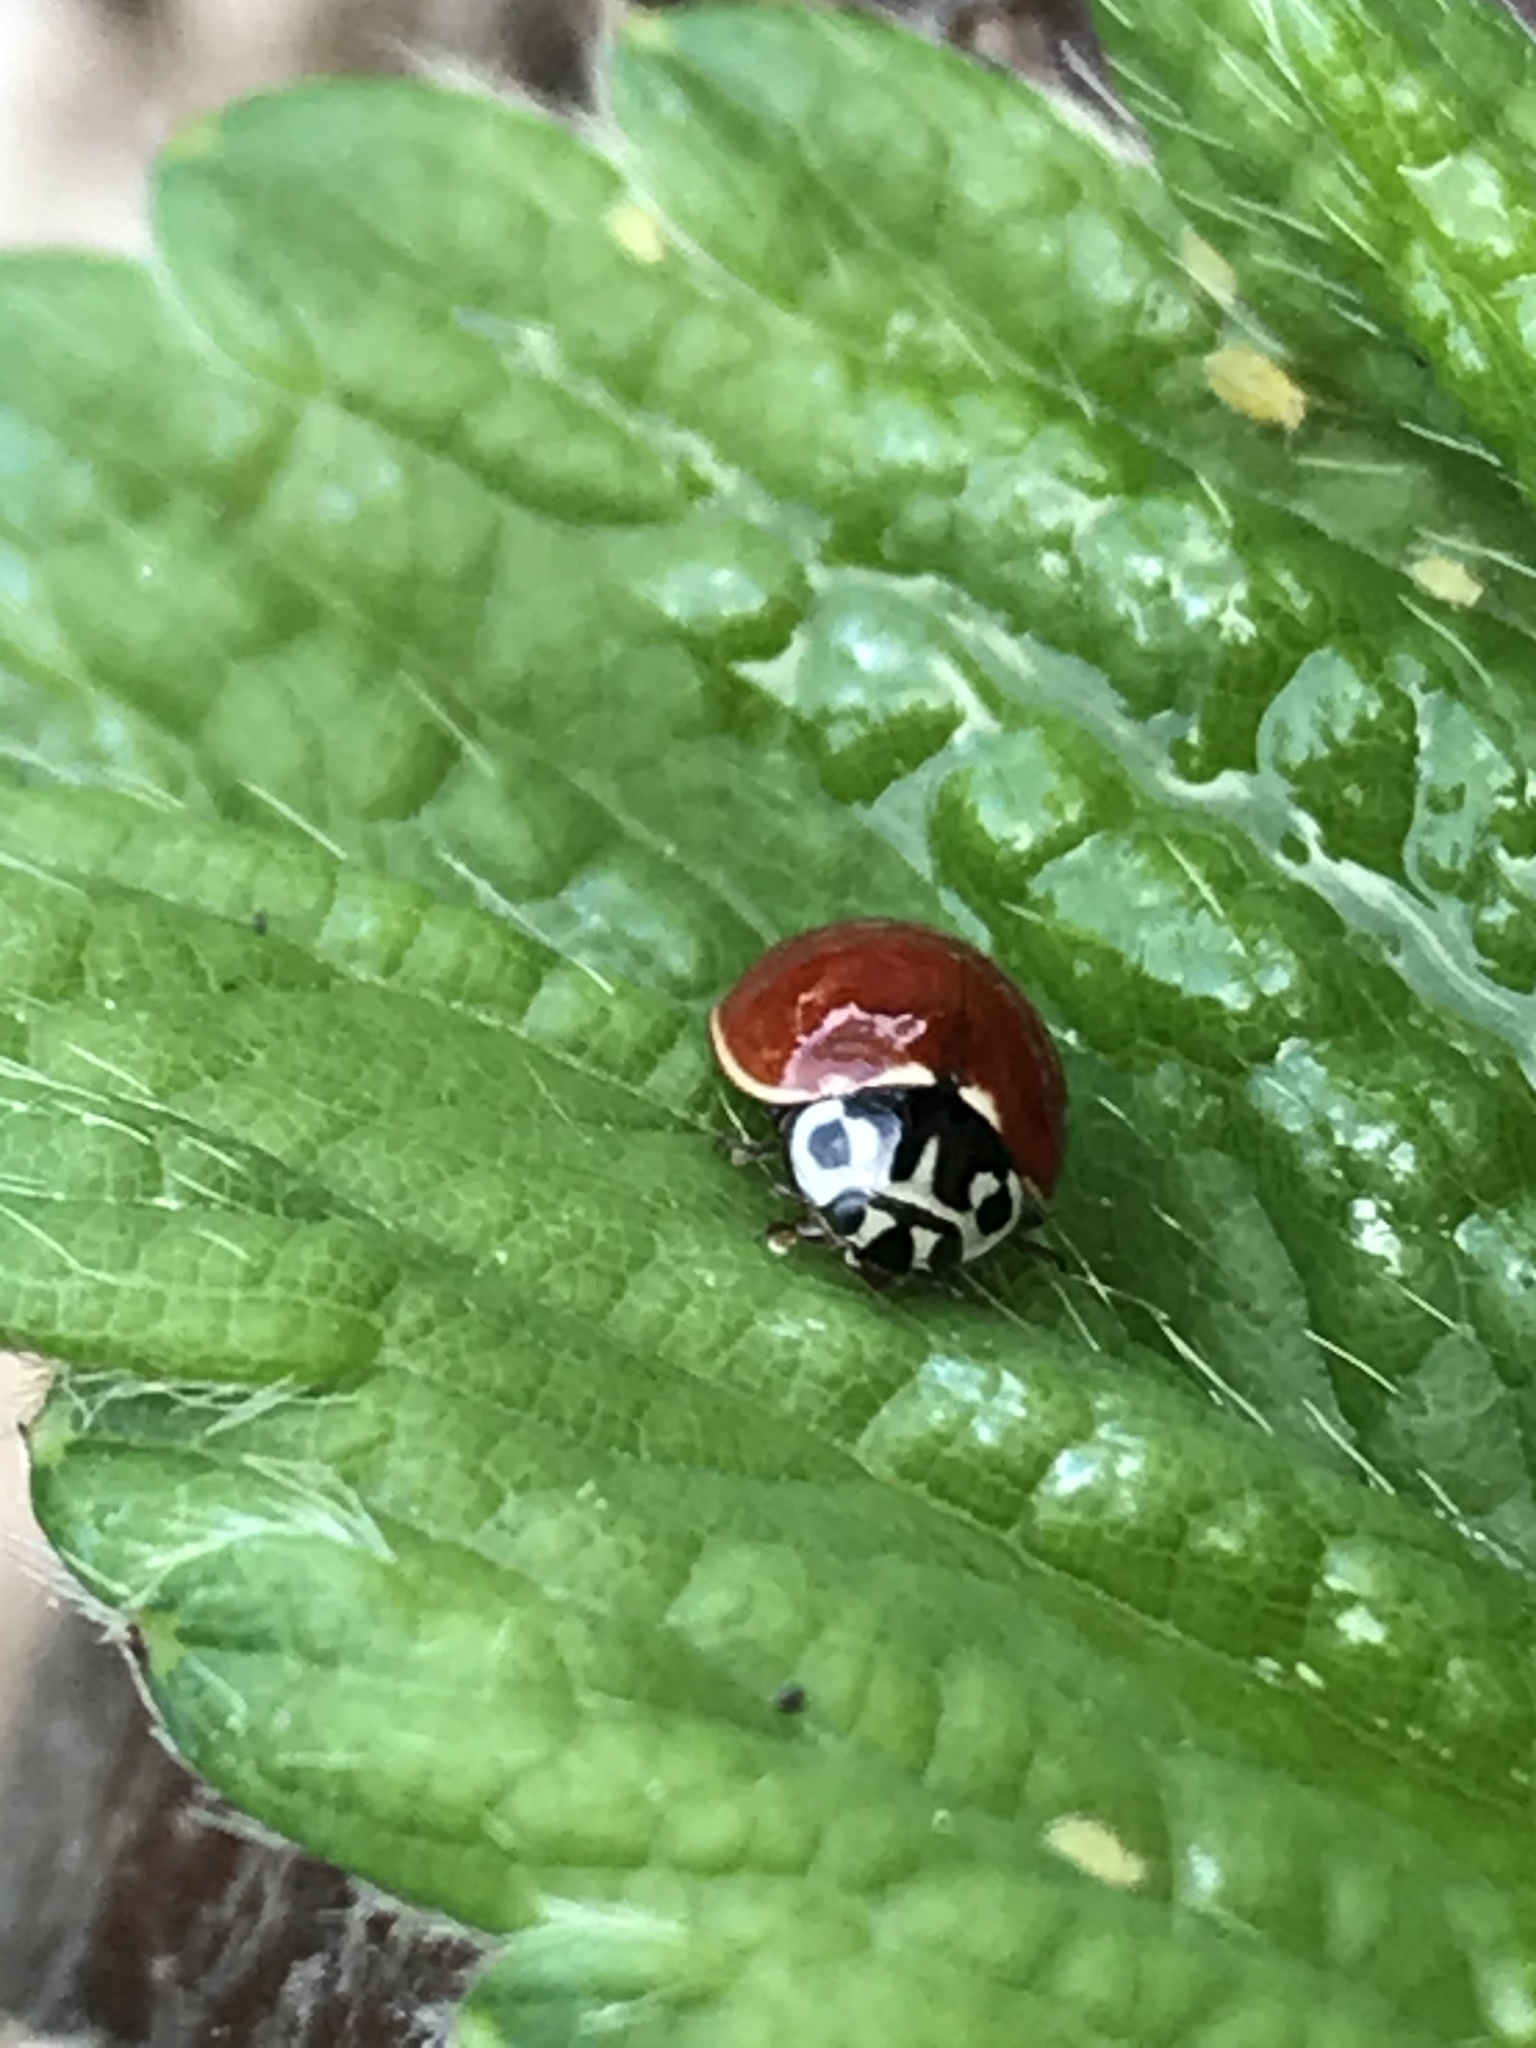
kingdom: Animalia
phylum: Arthropoda
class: Insecta
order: Coleoptera
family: Coccinellidae
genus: Cycloneda
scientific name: Cycloneda polita
